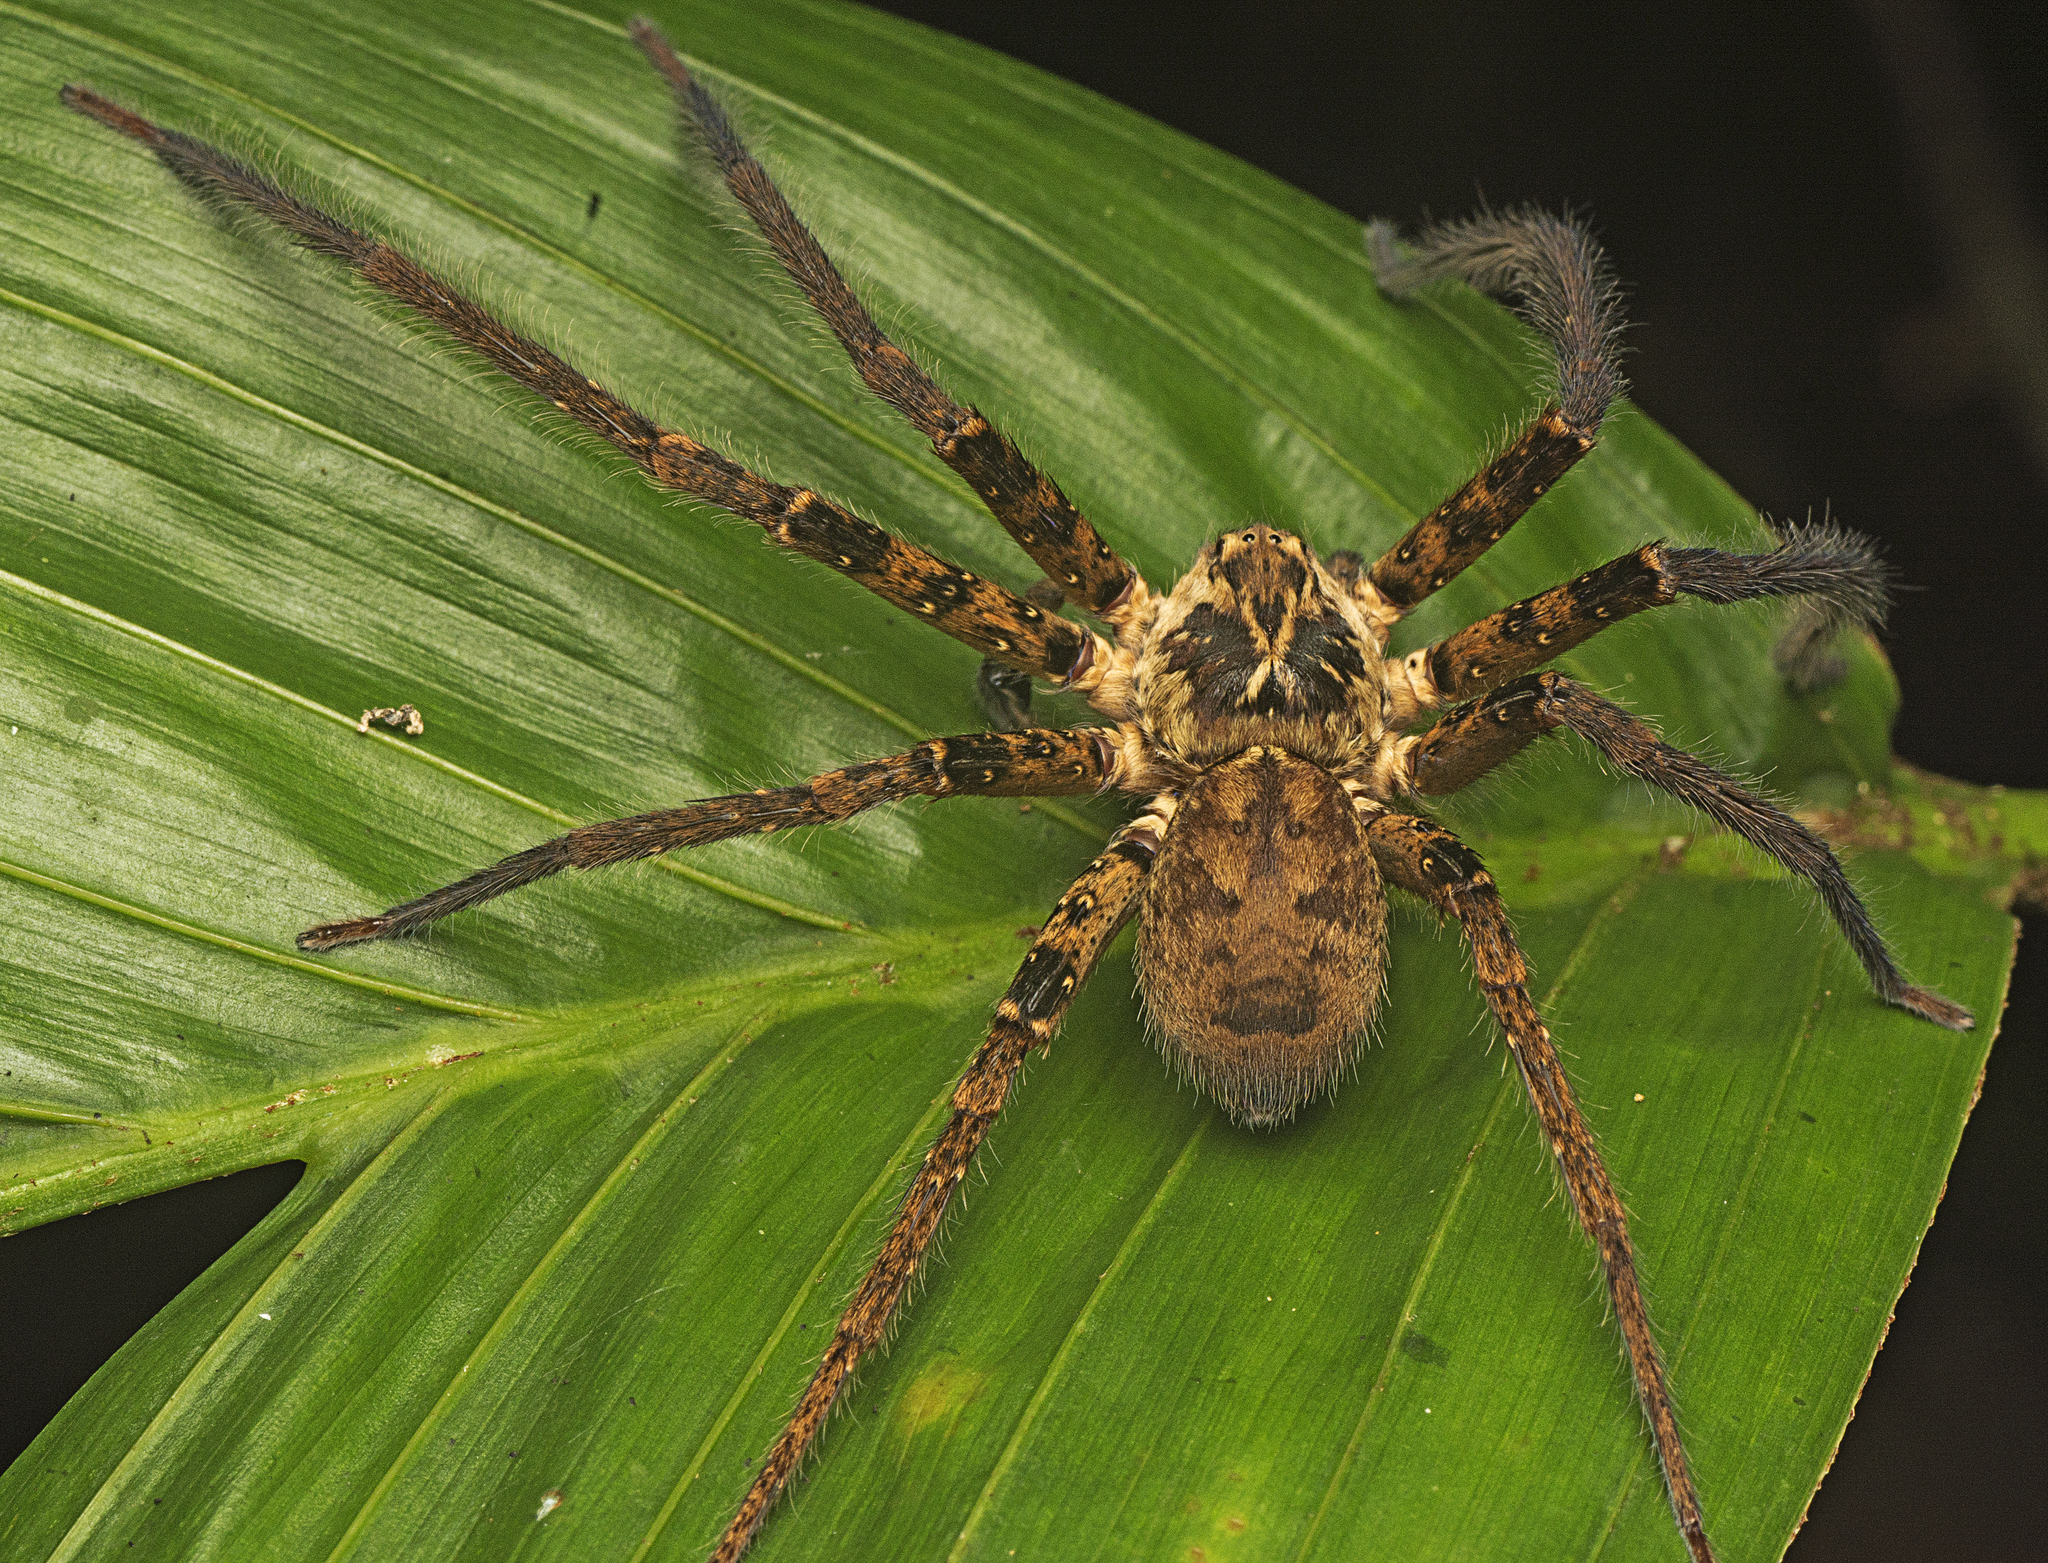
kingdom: Animalia
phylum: Arthropoda
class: Arachnida
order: Araneae
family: Sparassidae
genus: Heteropoda
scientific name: Heteropoda hillerae
